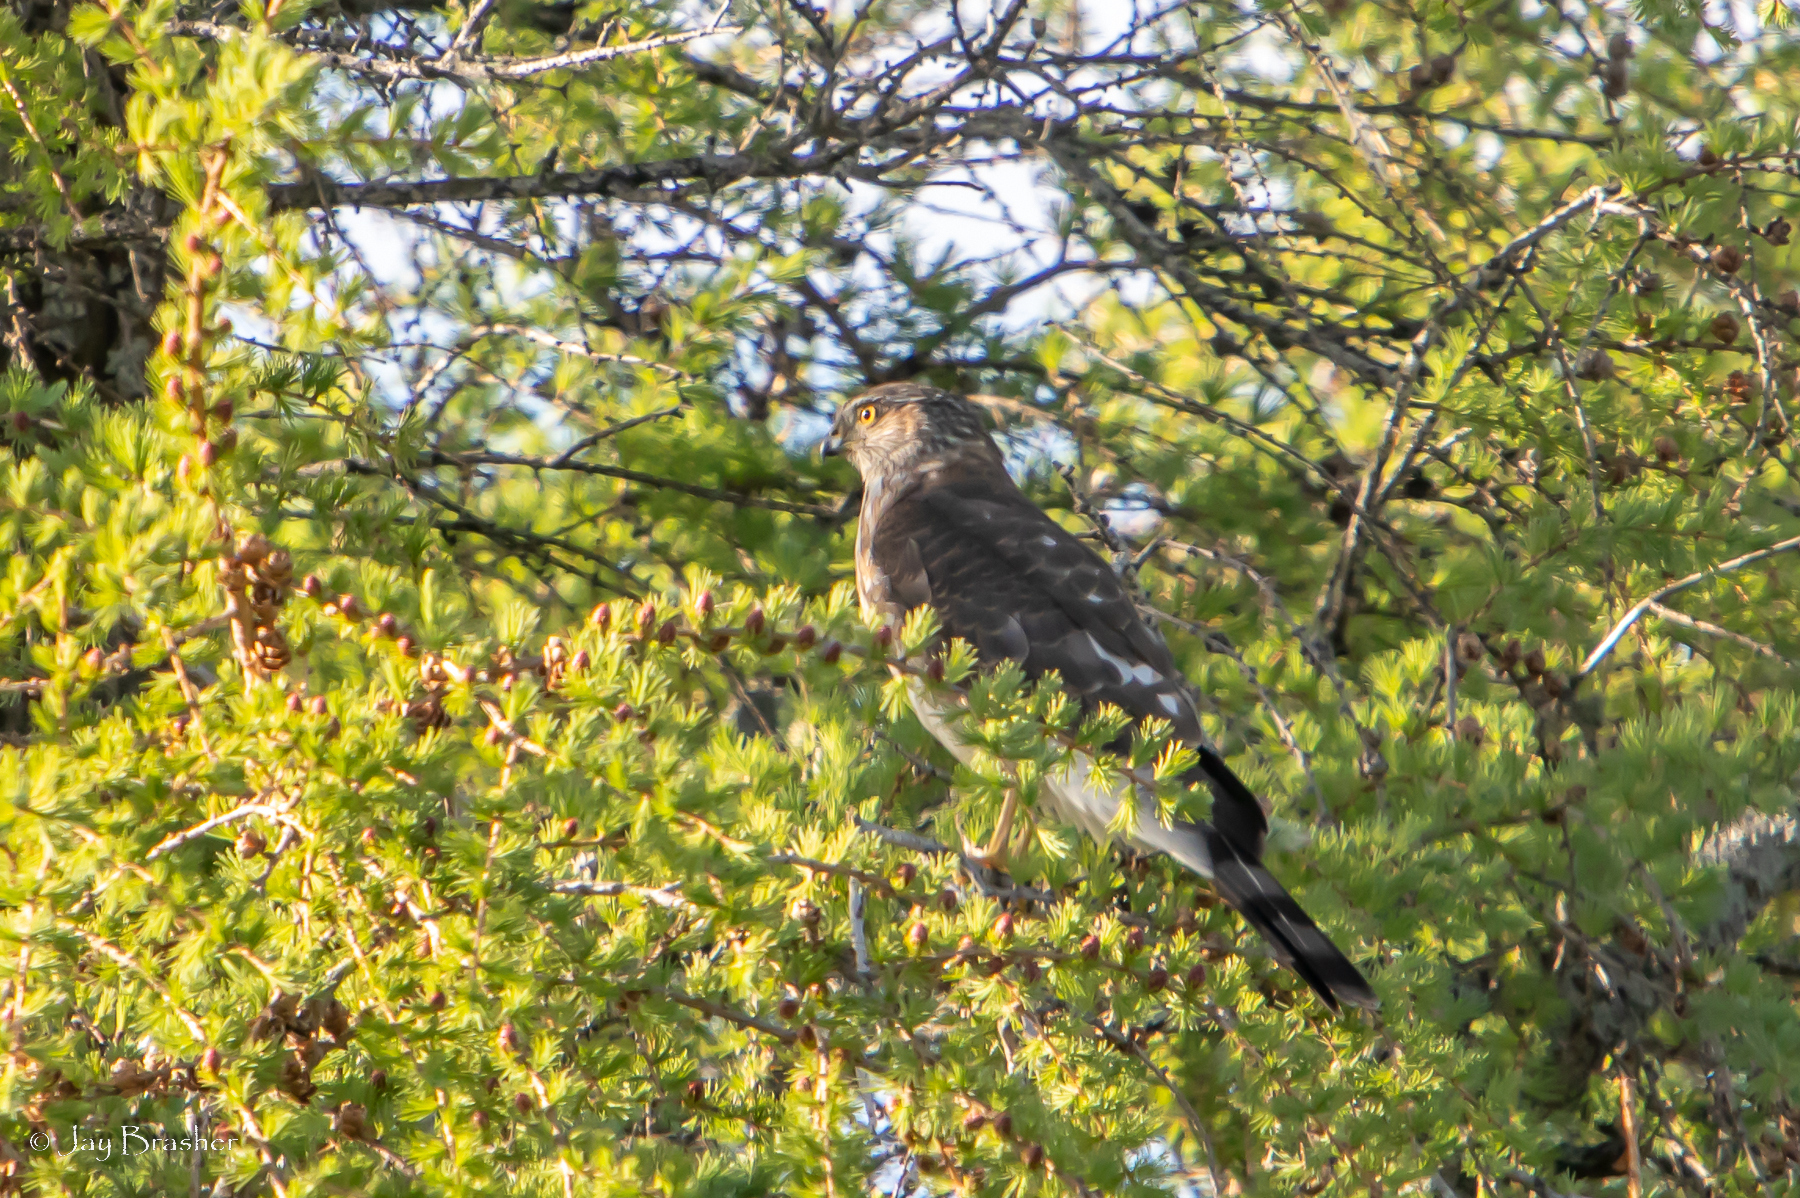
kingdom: Animalia
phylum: Chordata
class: Aves
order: Accipitriformes
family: Accipitridae
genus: Accipiter
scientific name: Accipiter striatus
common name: Sharp-shinned hawk
